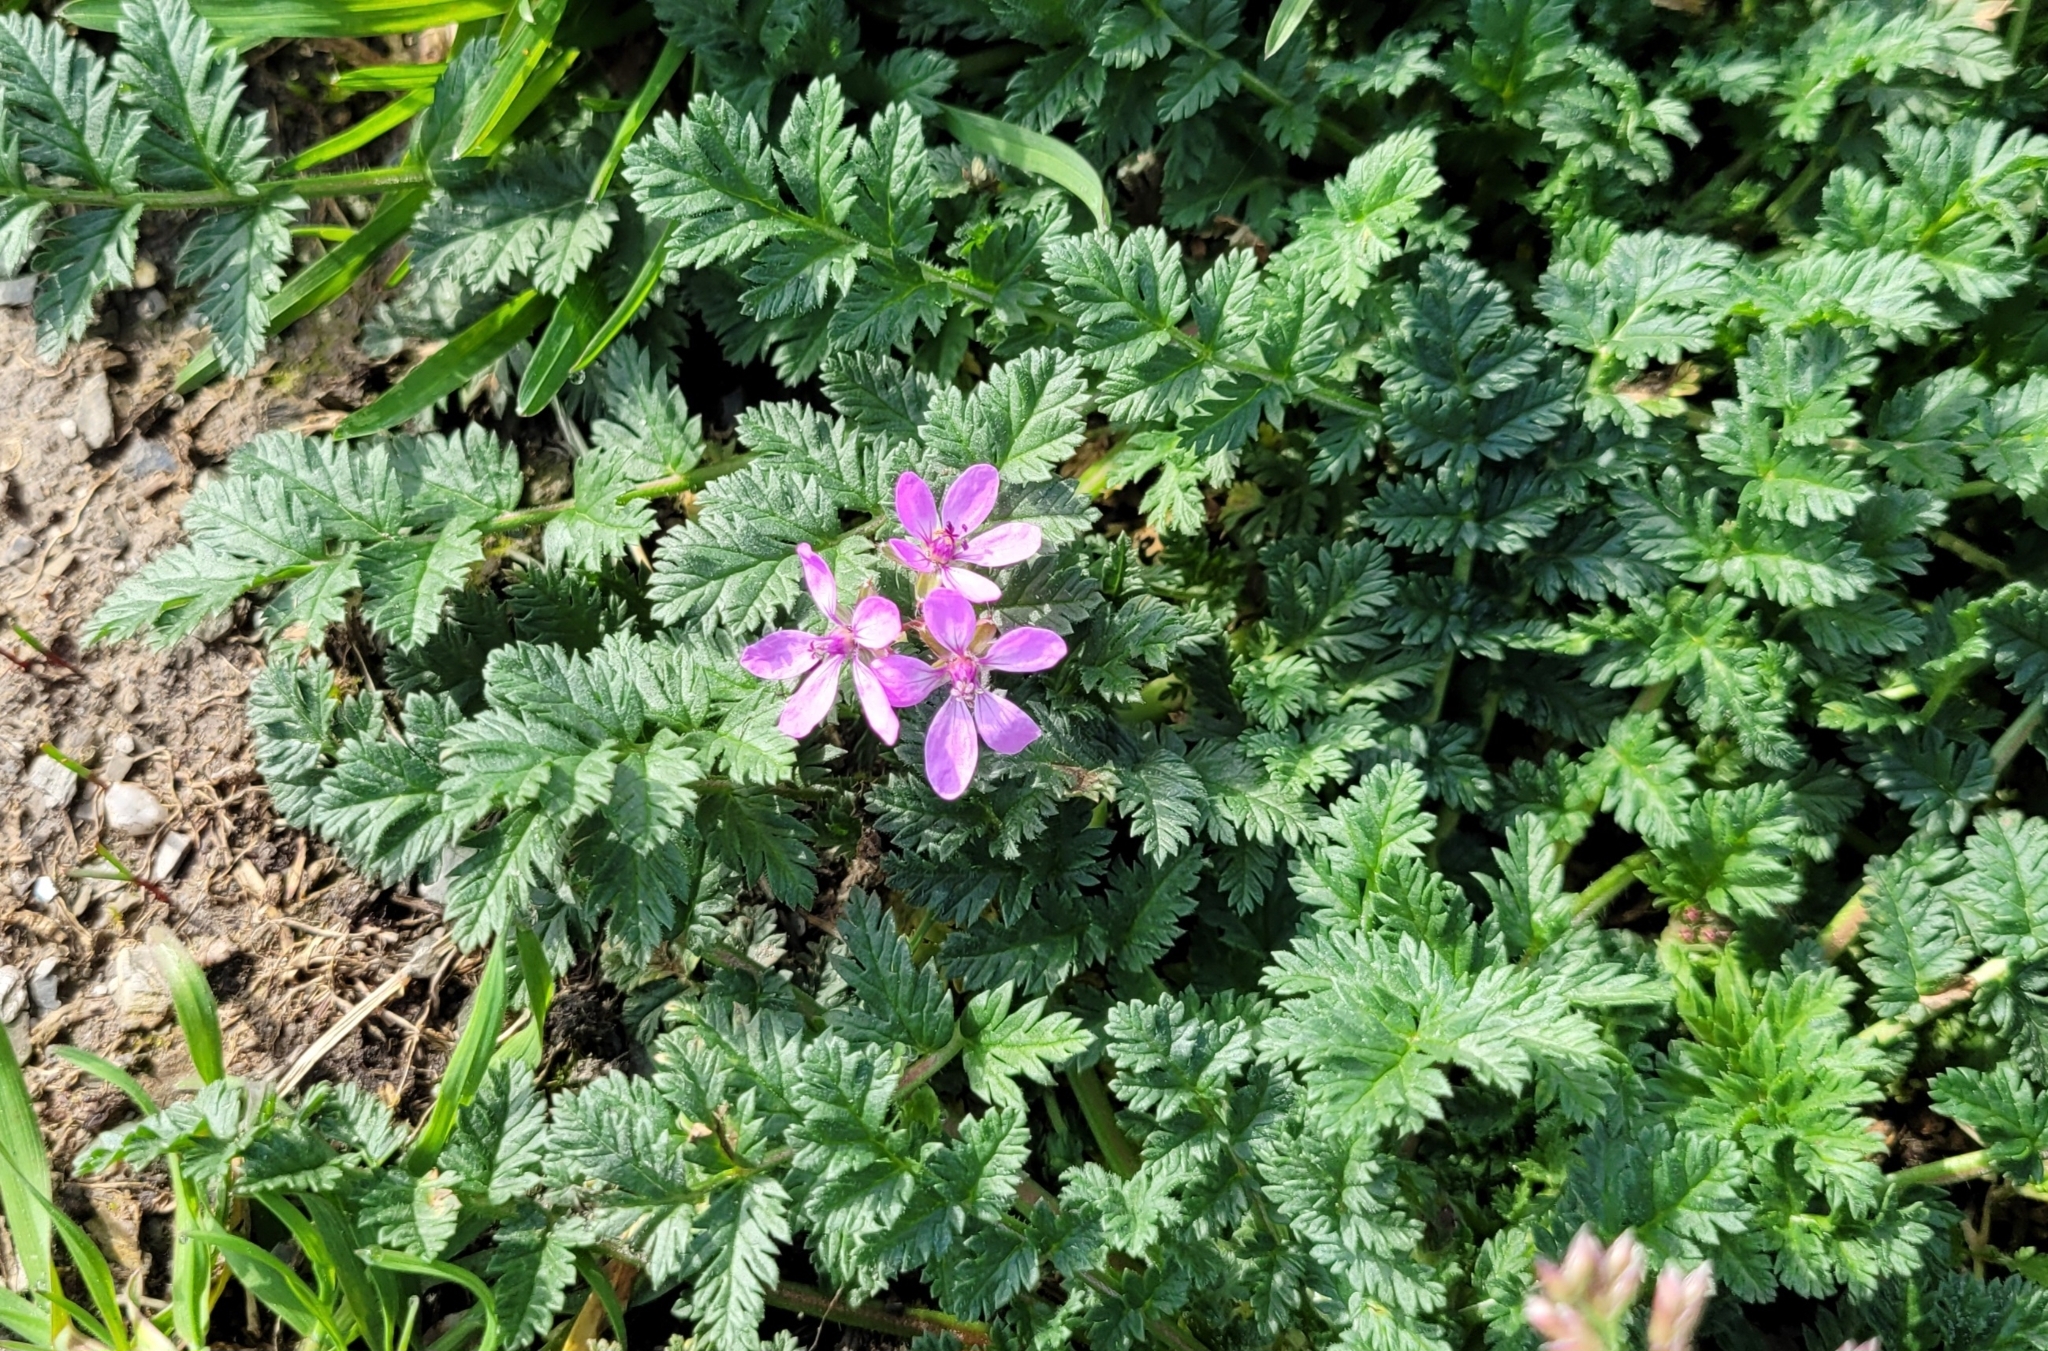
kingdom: Plantae
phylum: Tracheophyta
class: Magnoliopsida
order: Geraniales
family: Geraniaceae
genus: Erodium
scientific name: Erodium cicutarium
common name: Common stork's-bill
